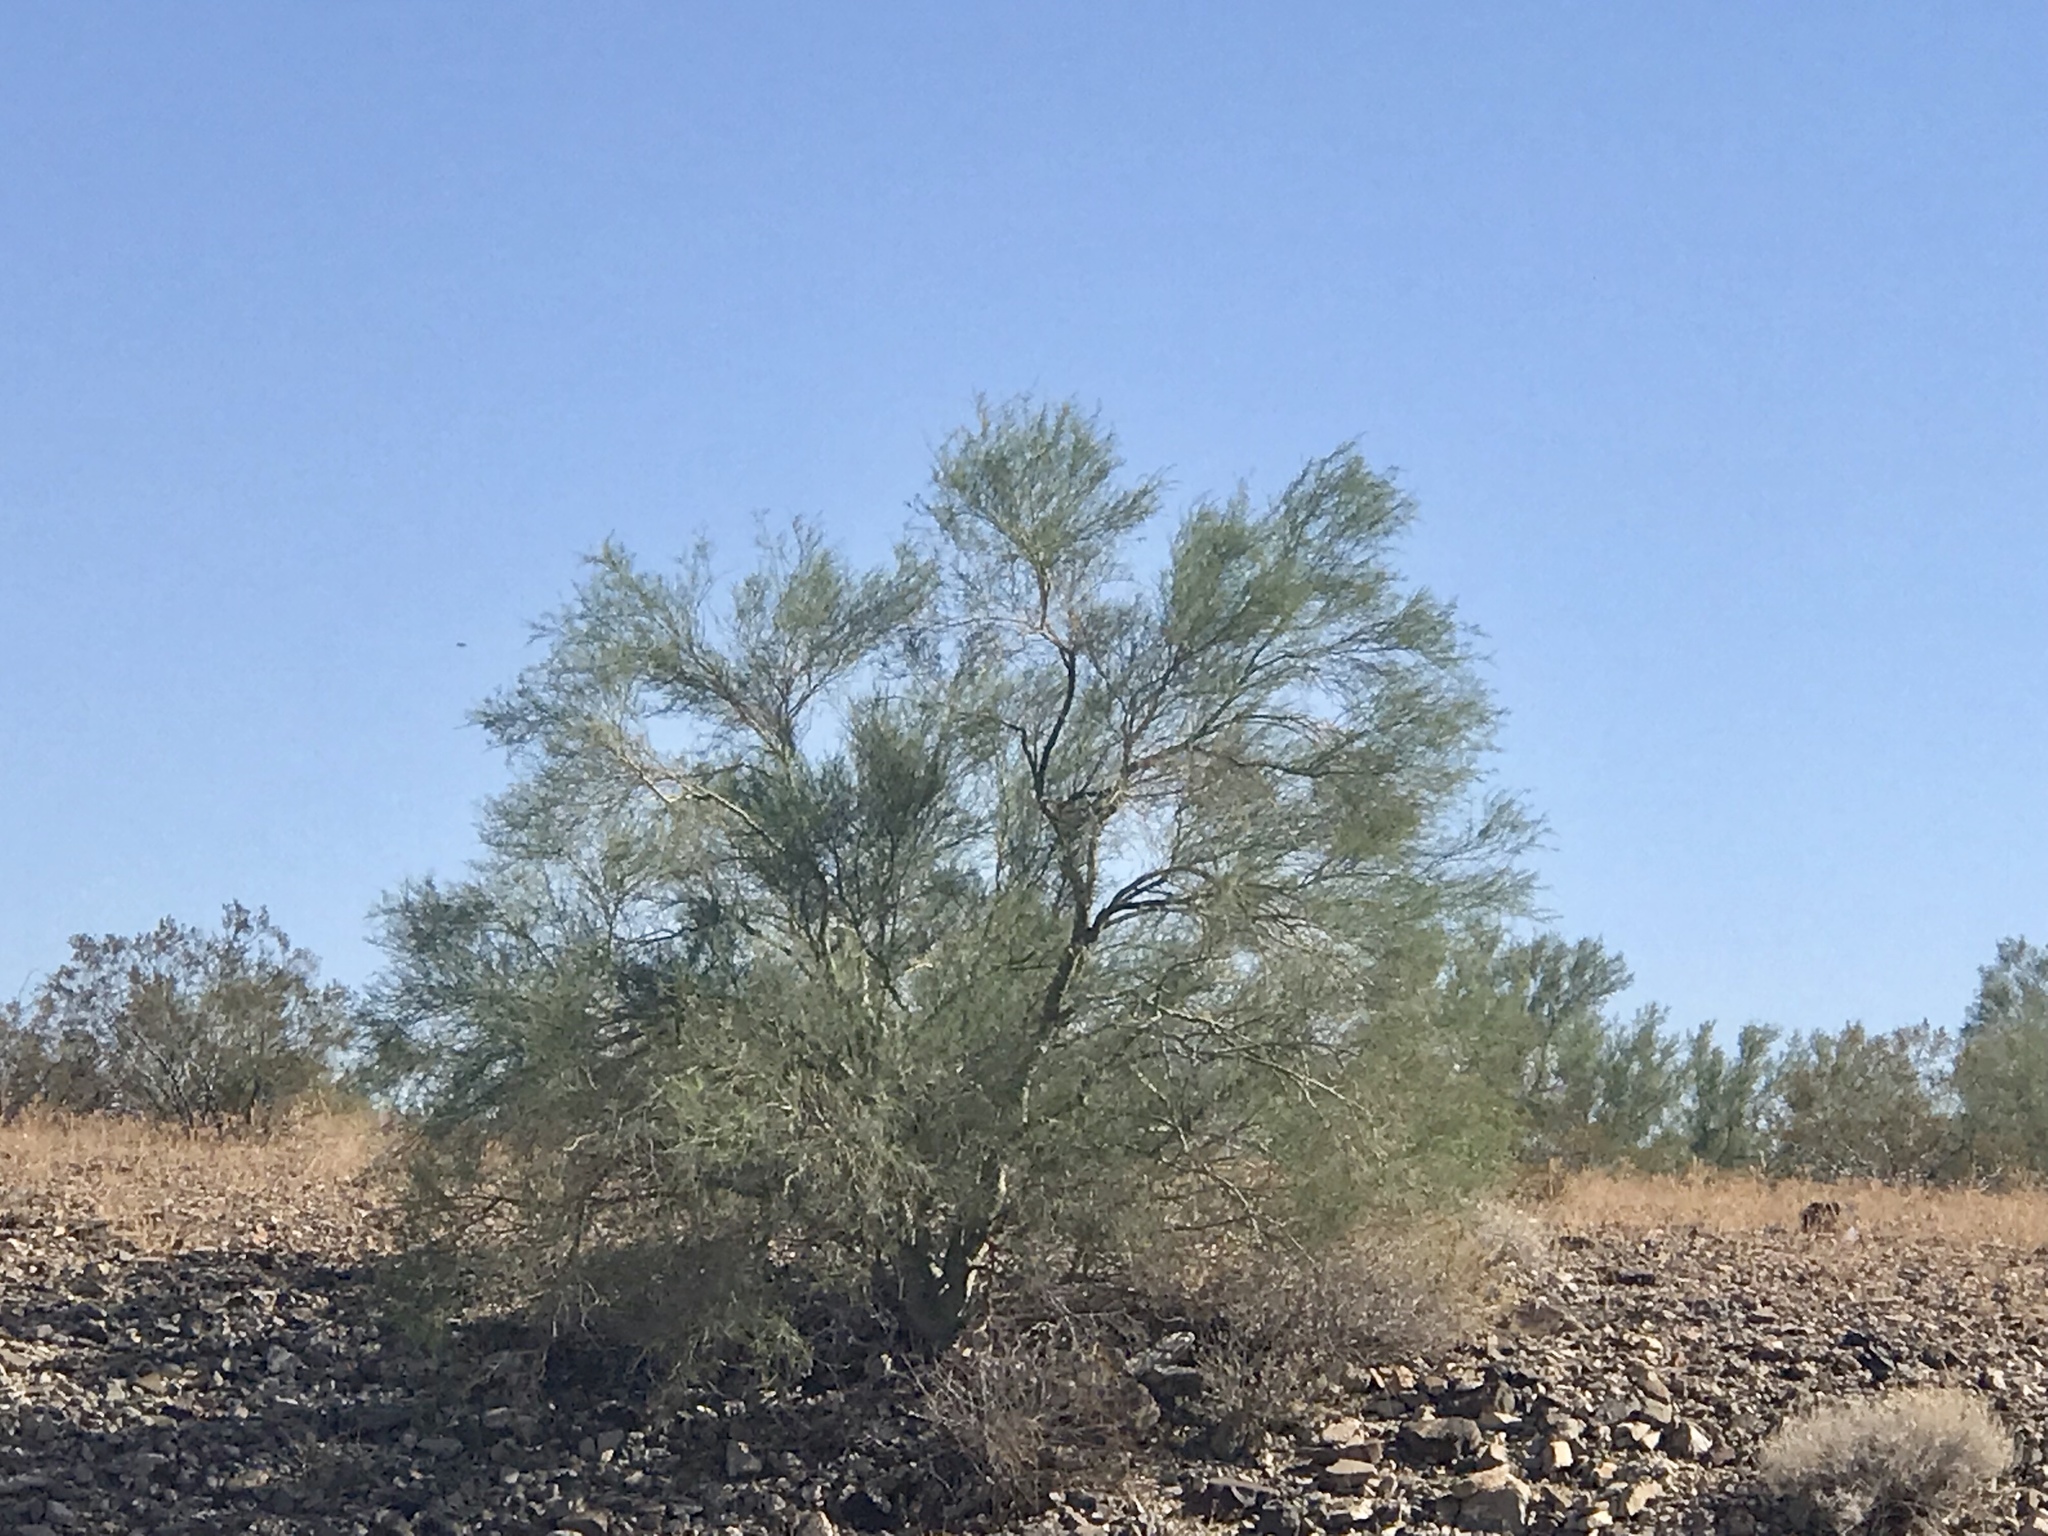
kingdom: Plantae
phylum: Tracheophyta
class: Magnoliopsida
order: Fabales
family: Fabaceae
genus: Parkinsonia
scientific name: Parkinsonia florida
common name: Blue paloverde
